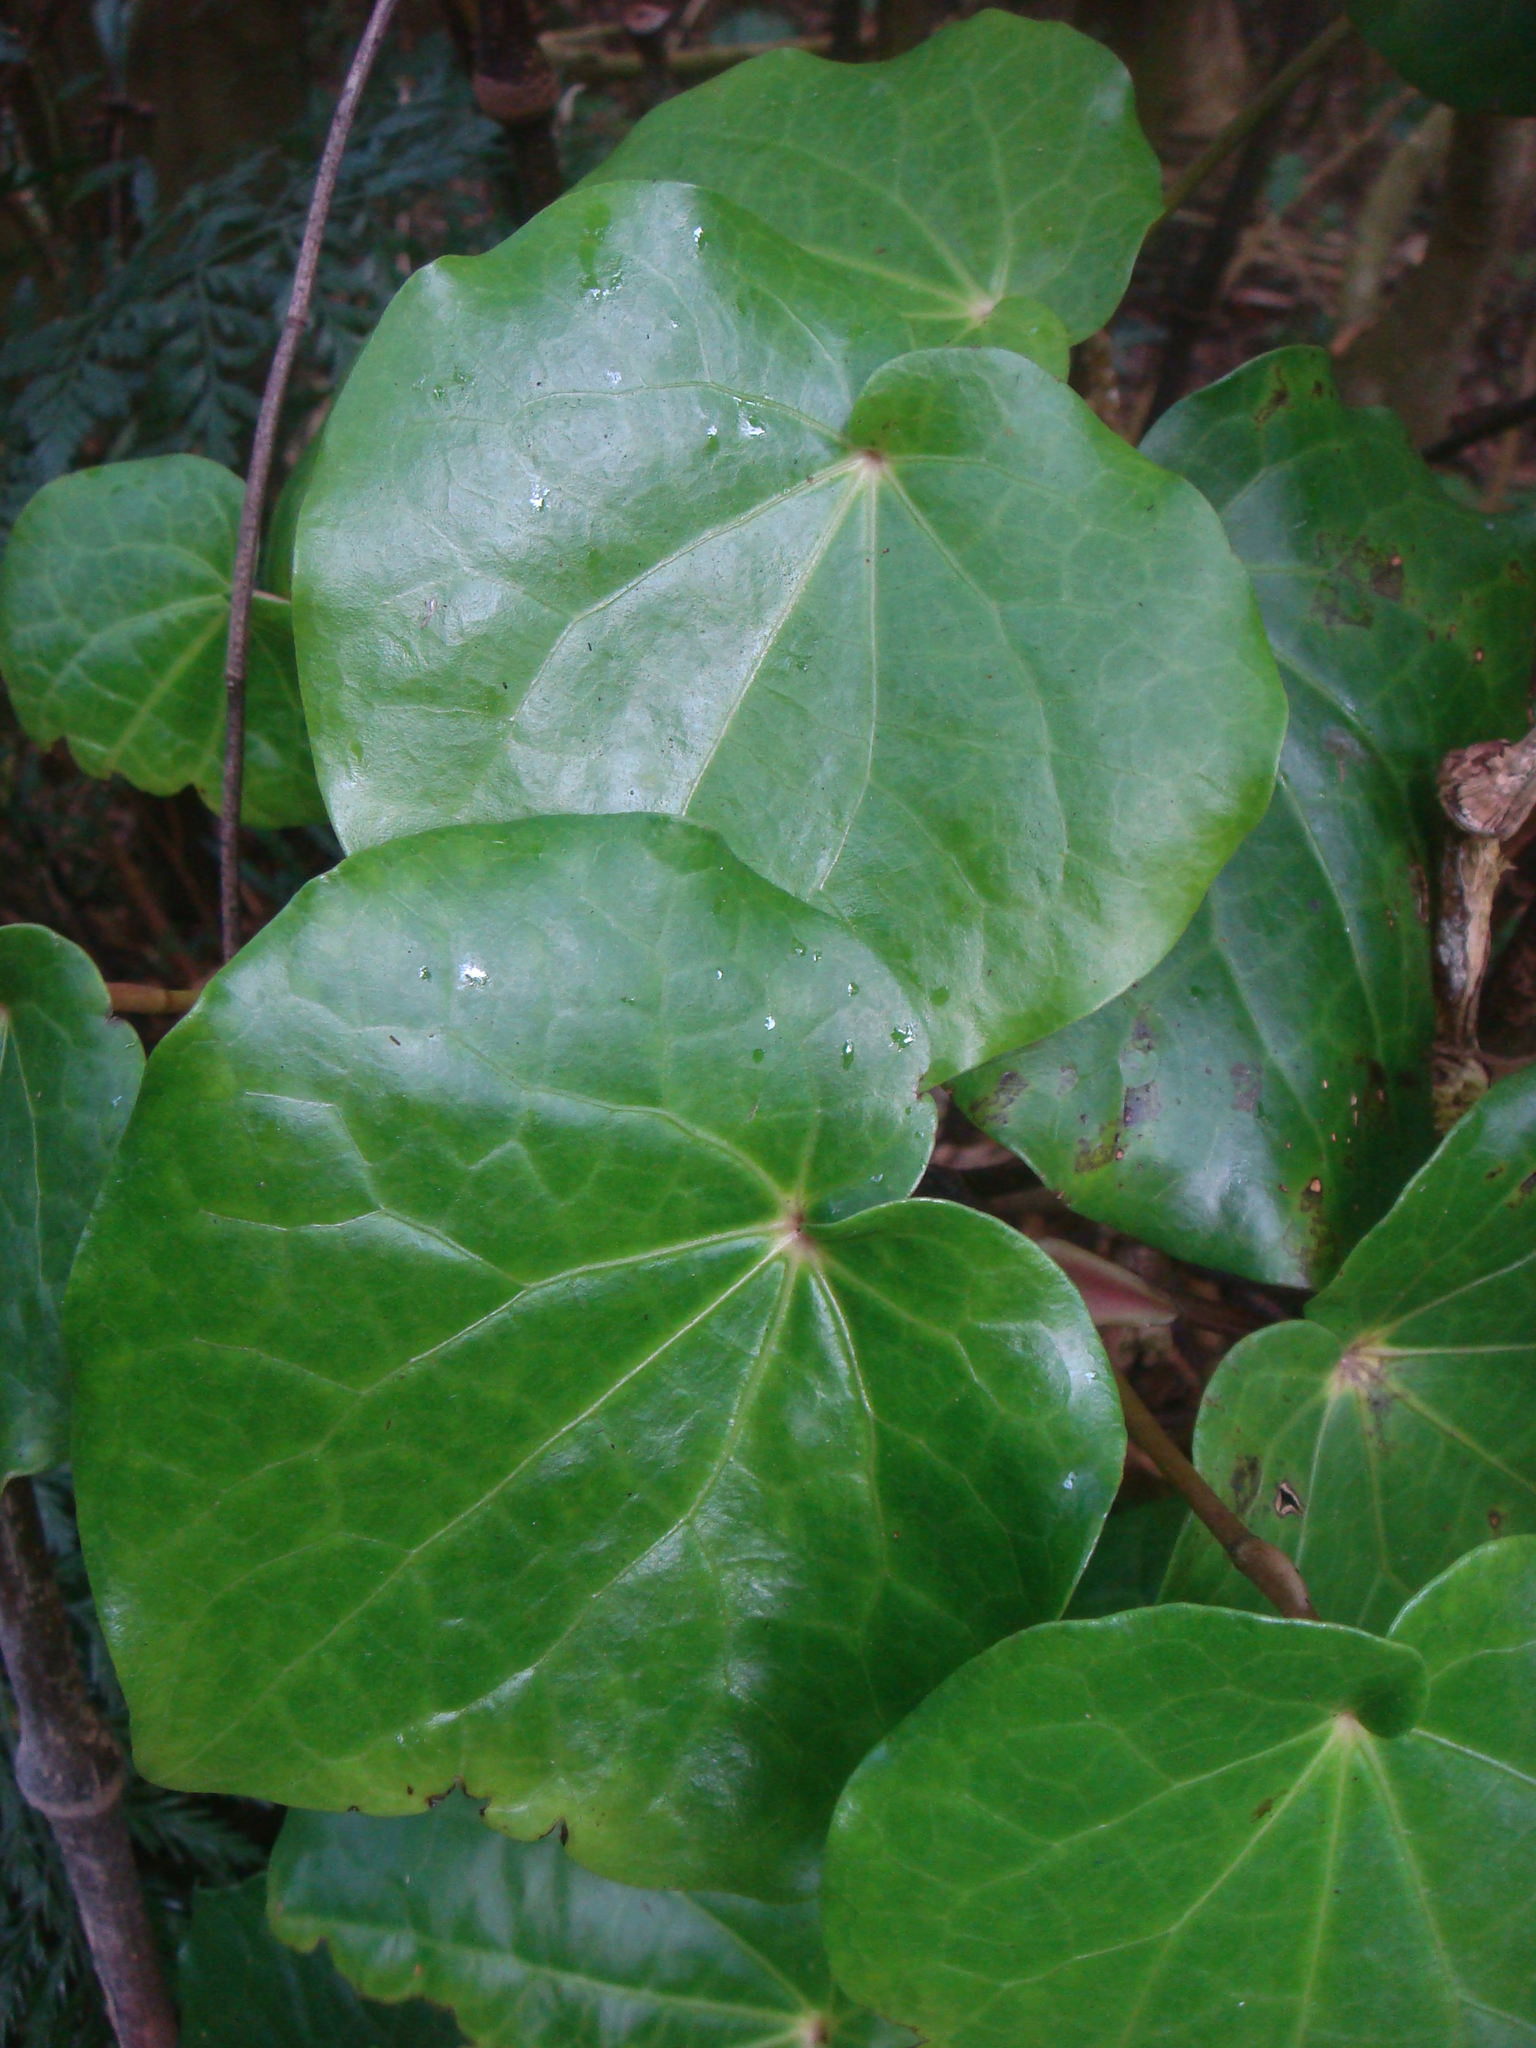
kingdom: Plantae
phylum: Tracheophyta
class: Magnoliopsida
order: Piperales
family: Piperaceae
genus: Macropiper
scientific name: Macropiper excelsum
